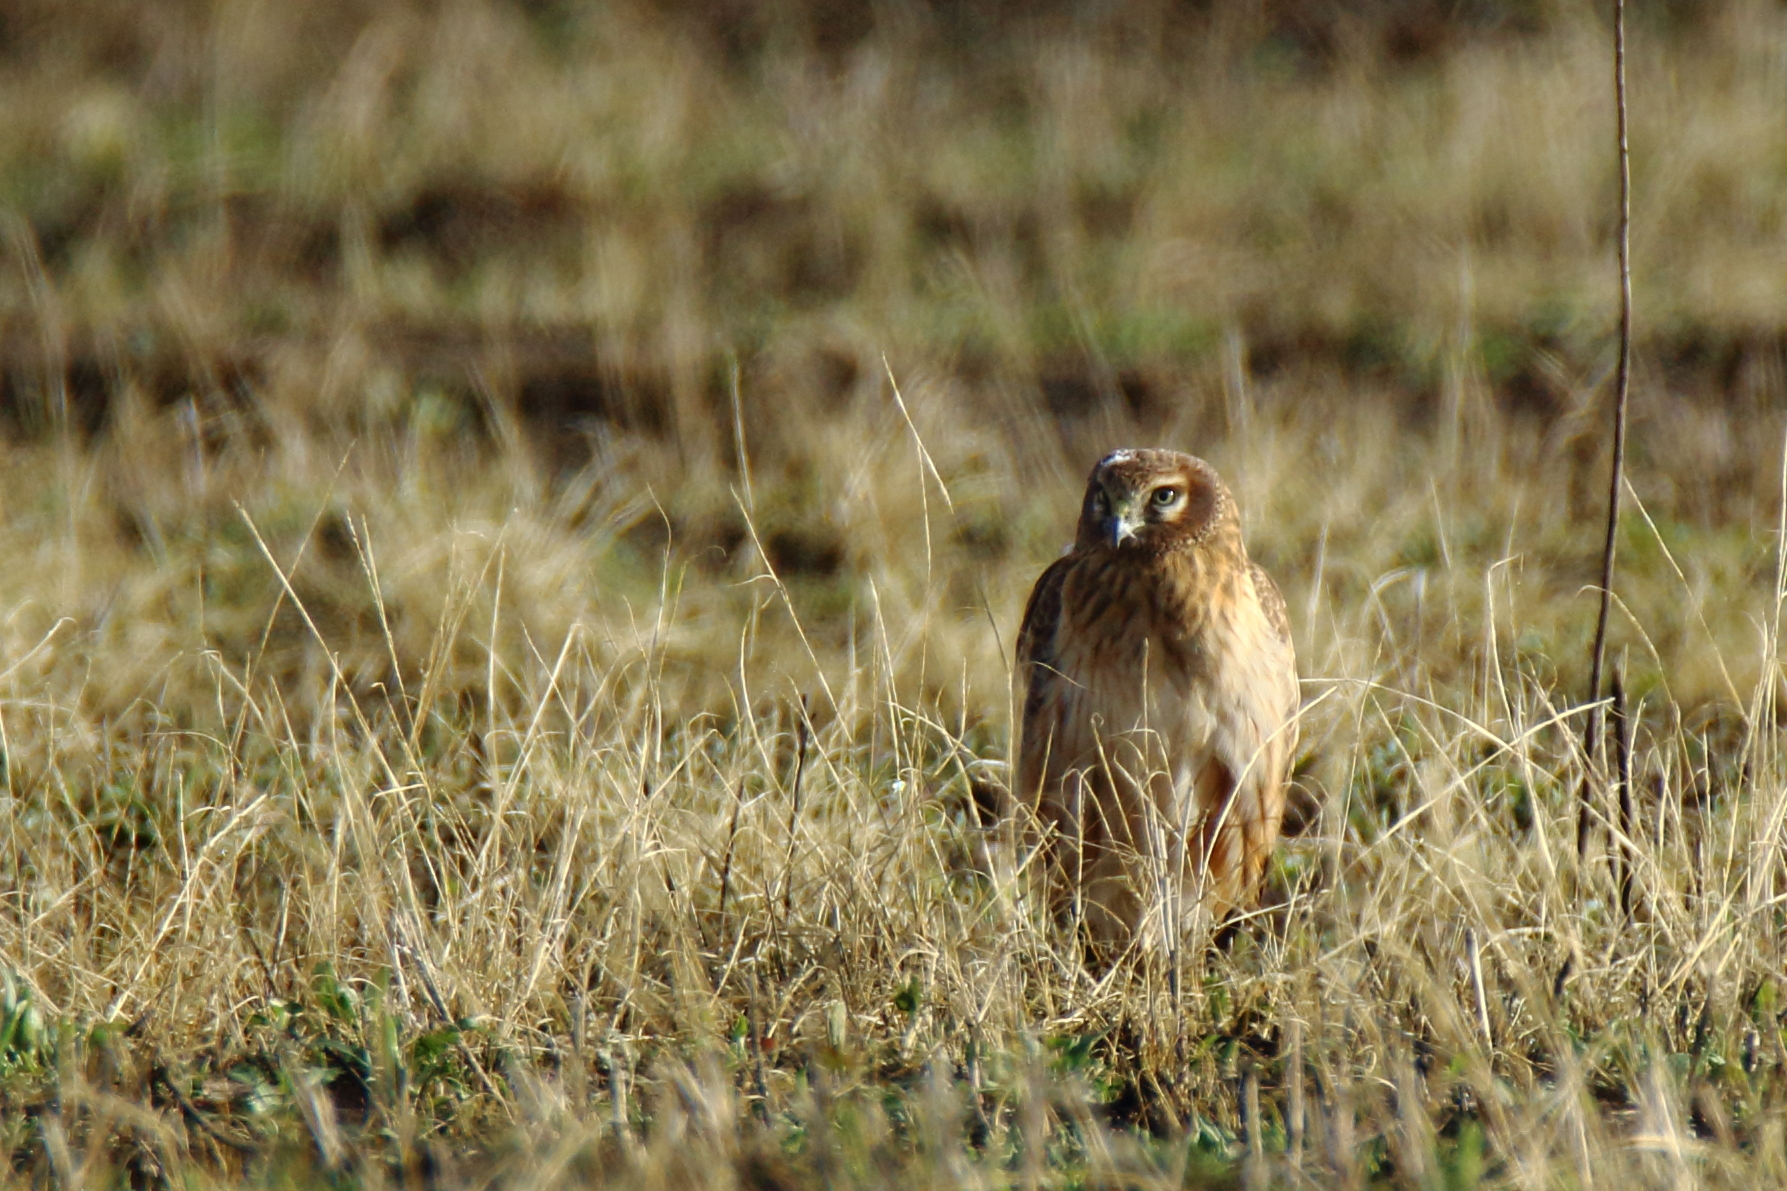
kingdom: Animalia
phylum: Chordata
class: Aves
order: Accipitriformes
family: Accipitridae
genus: Circus
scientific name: Circus cyaneus
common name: Hen harrier
